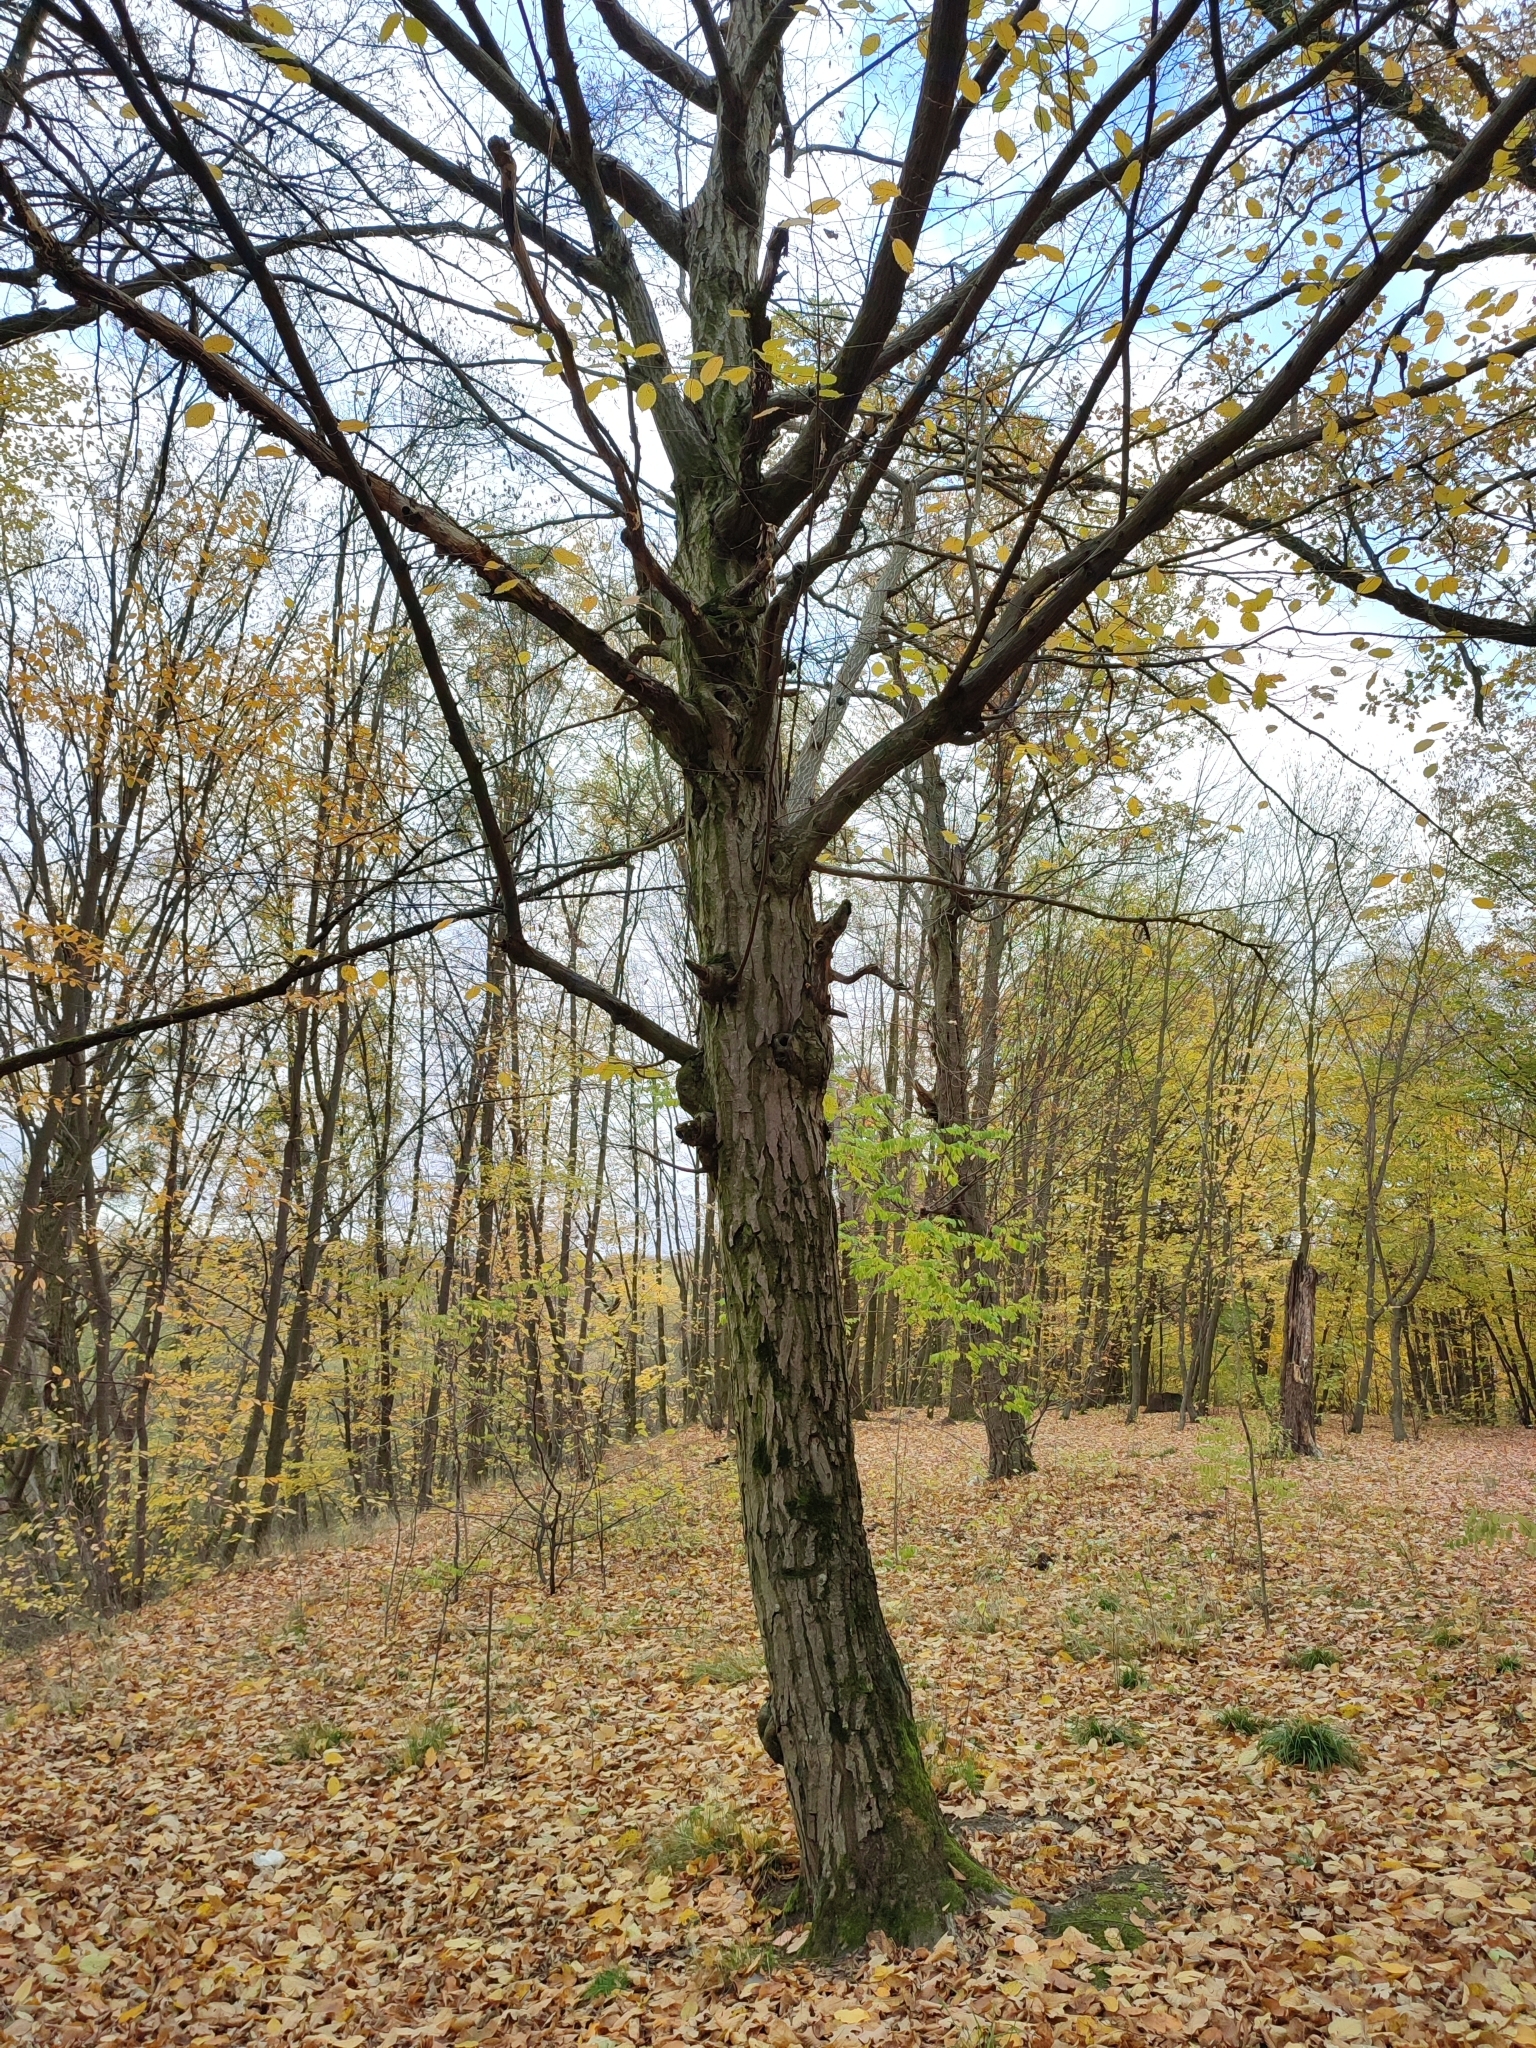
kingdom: Plantae
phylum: Tracheophyta
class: Magnoliopsida
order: Fagales
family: Betulaceae
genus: Carpinus
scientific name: Carpinus betulus
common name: Hornbeam
